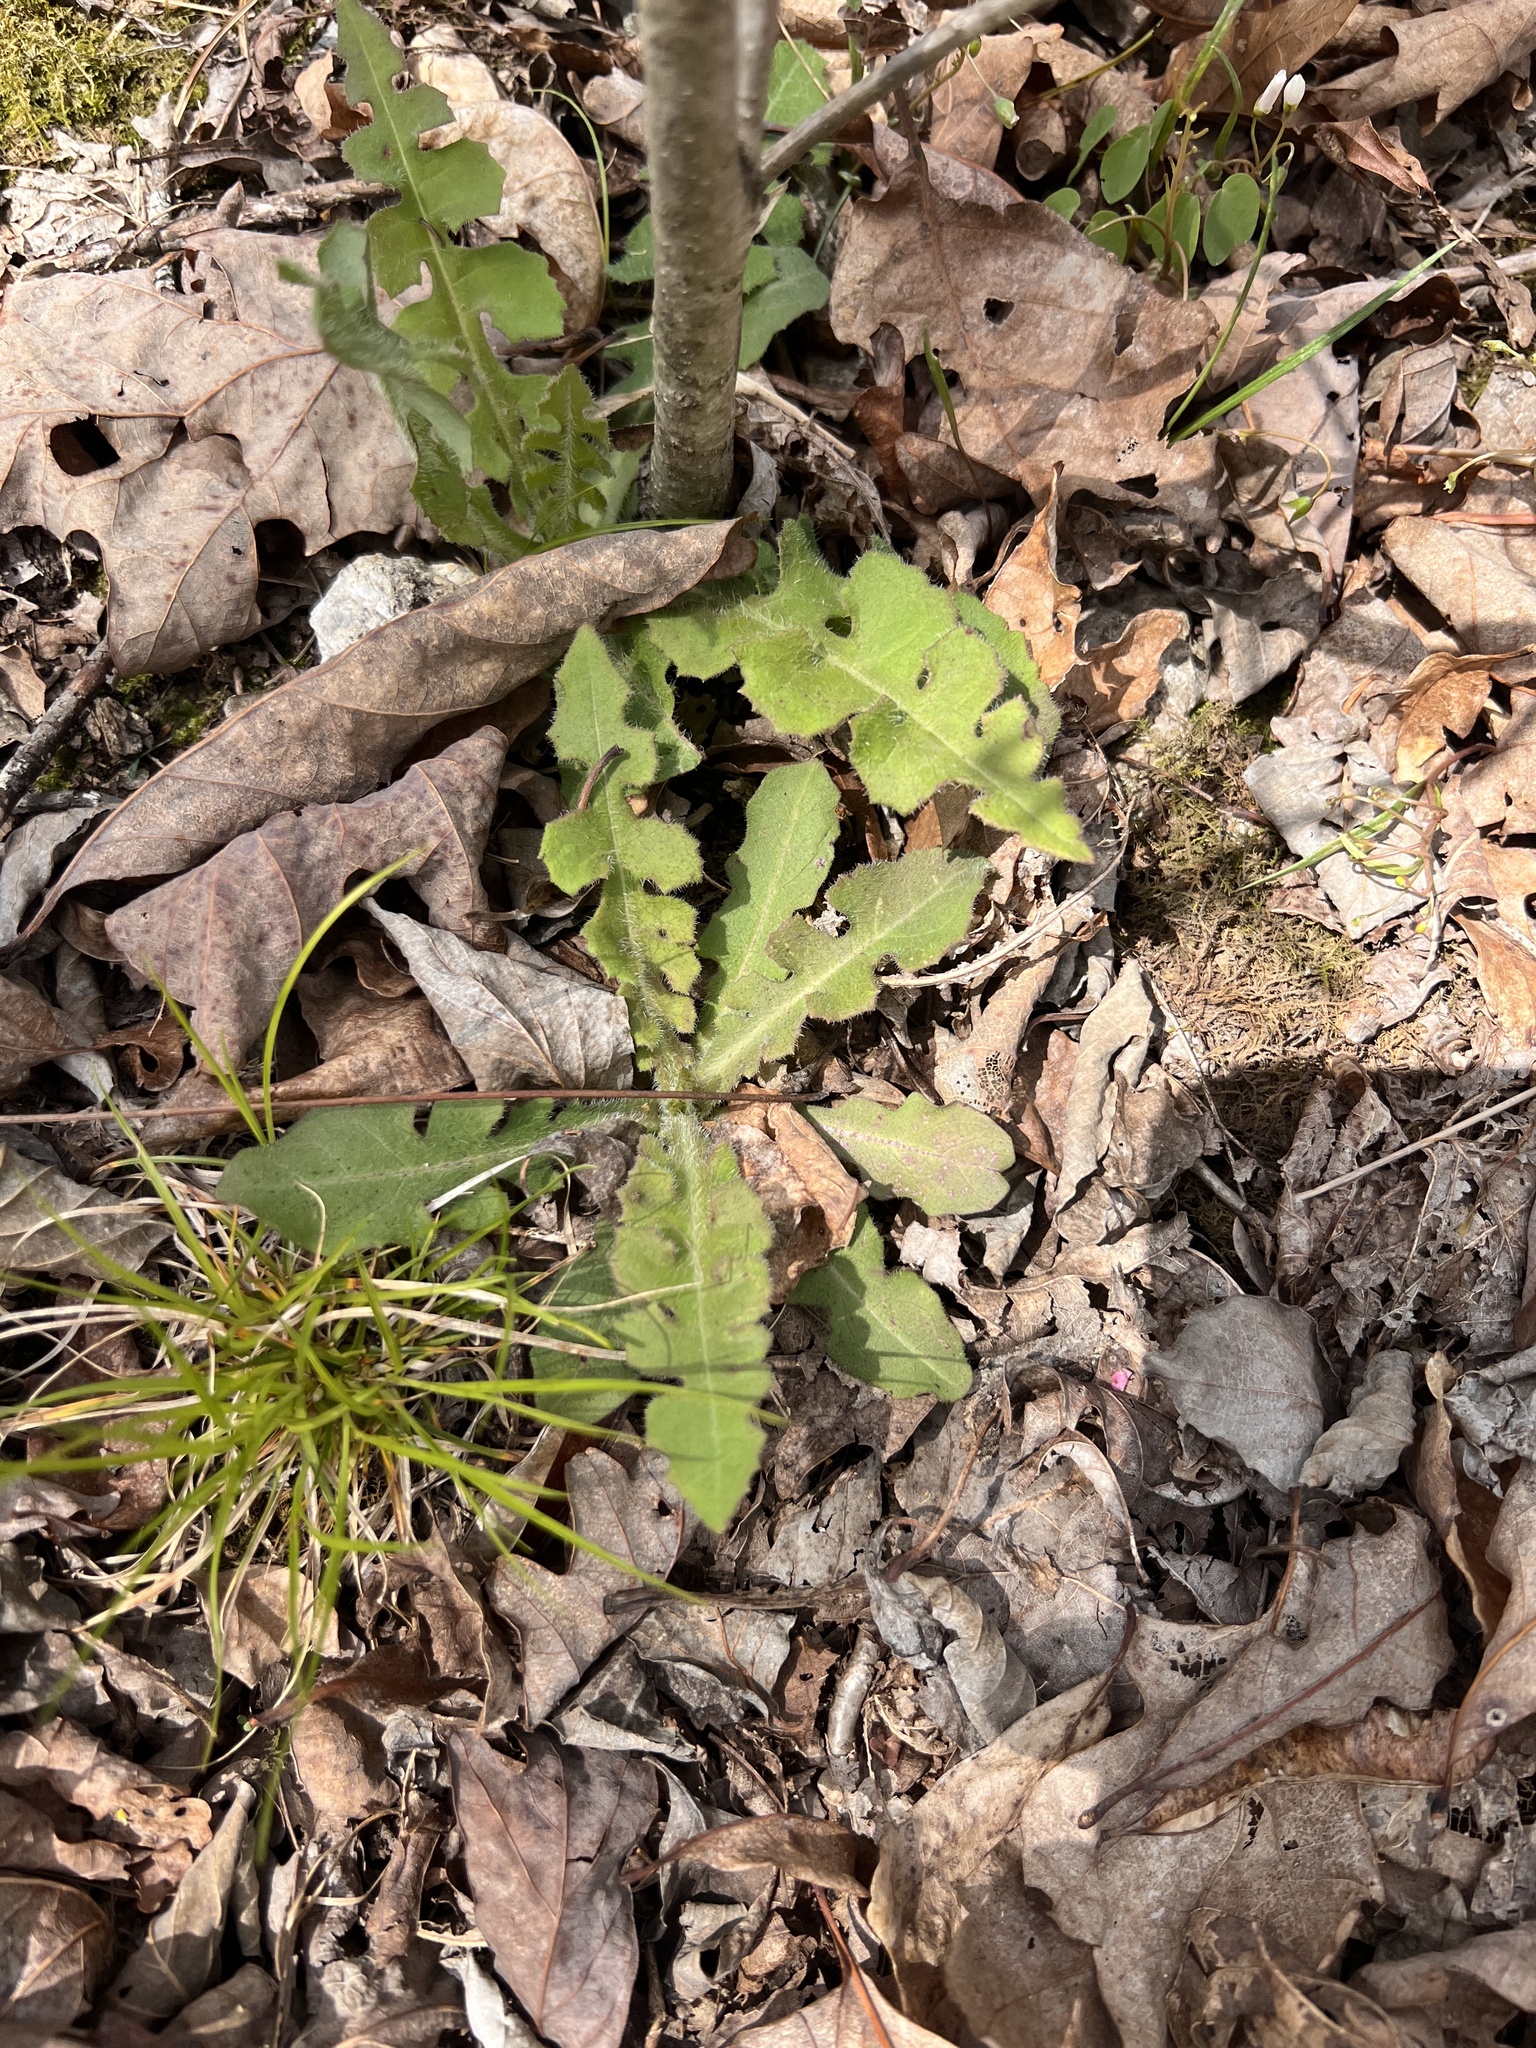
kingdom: Plantae
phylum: Tracheophyta
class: Magnoliopsida
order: Asterales
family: Asteraceae
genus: Lactuca
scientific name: Lactuca hirsuta
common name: Hairy lettuce
